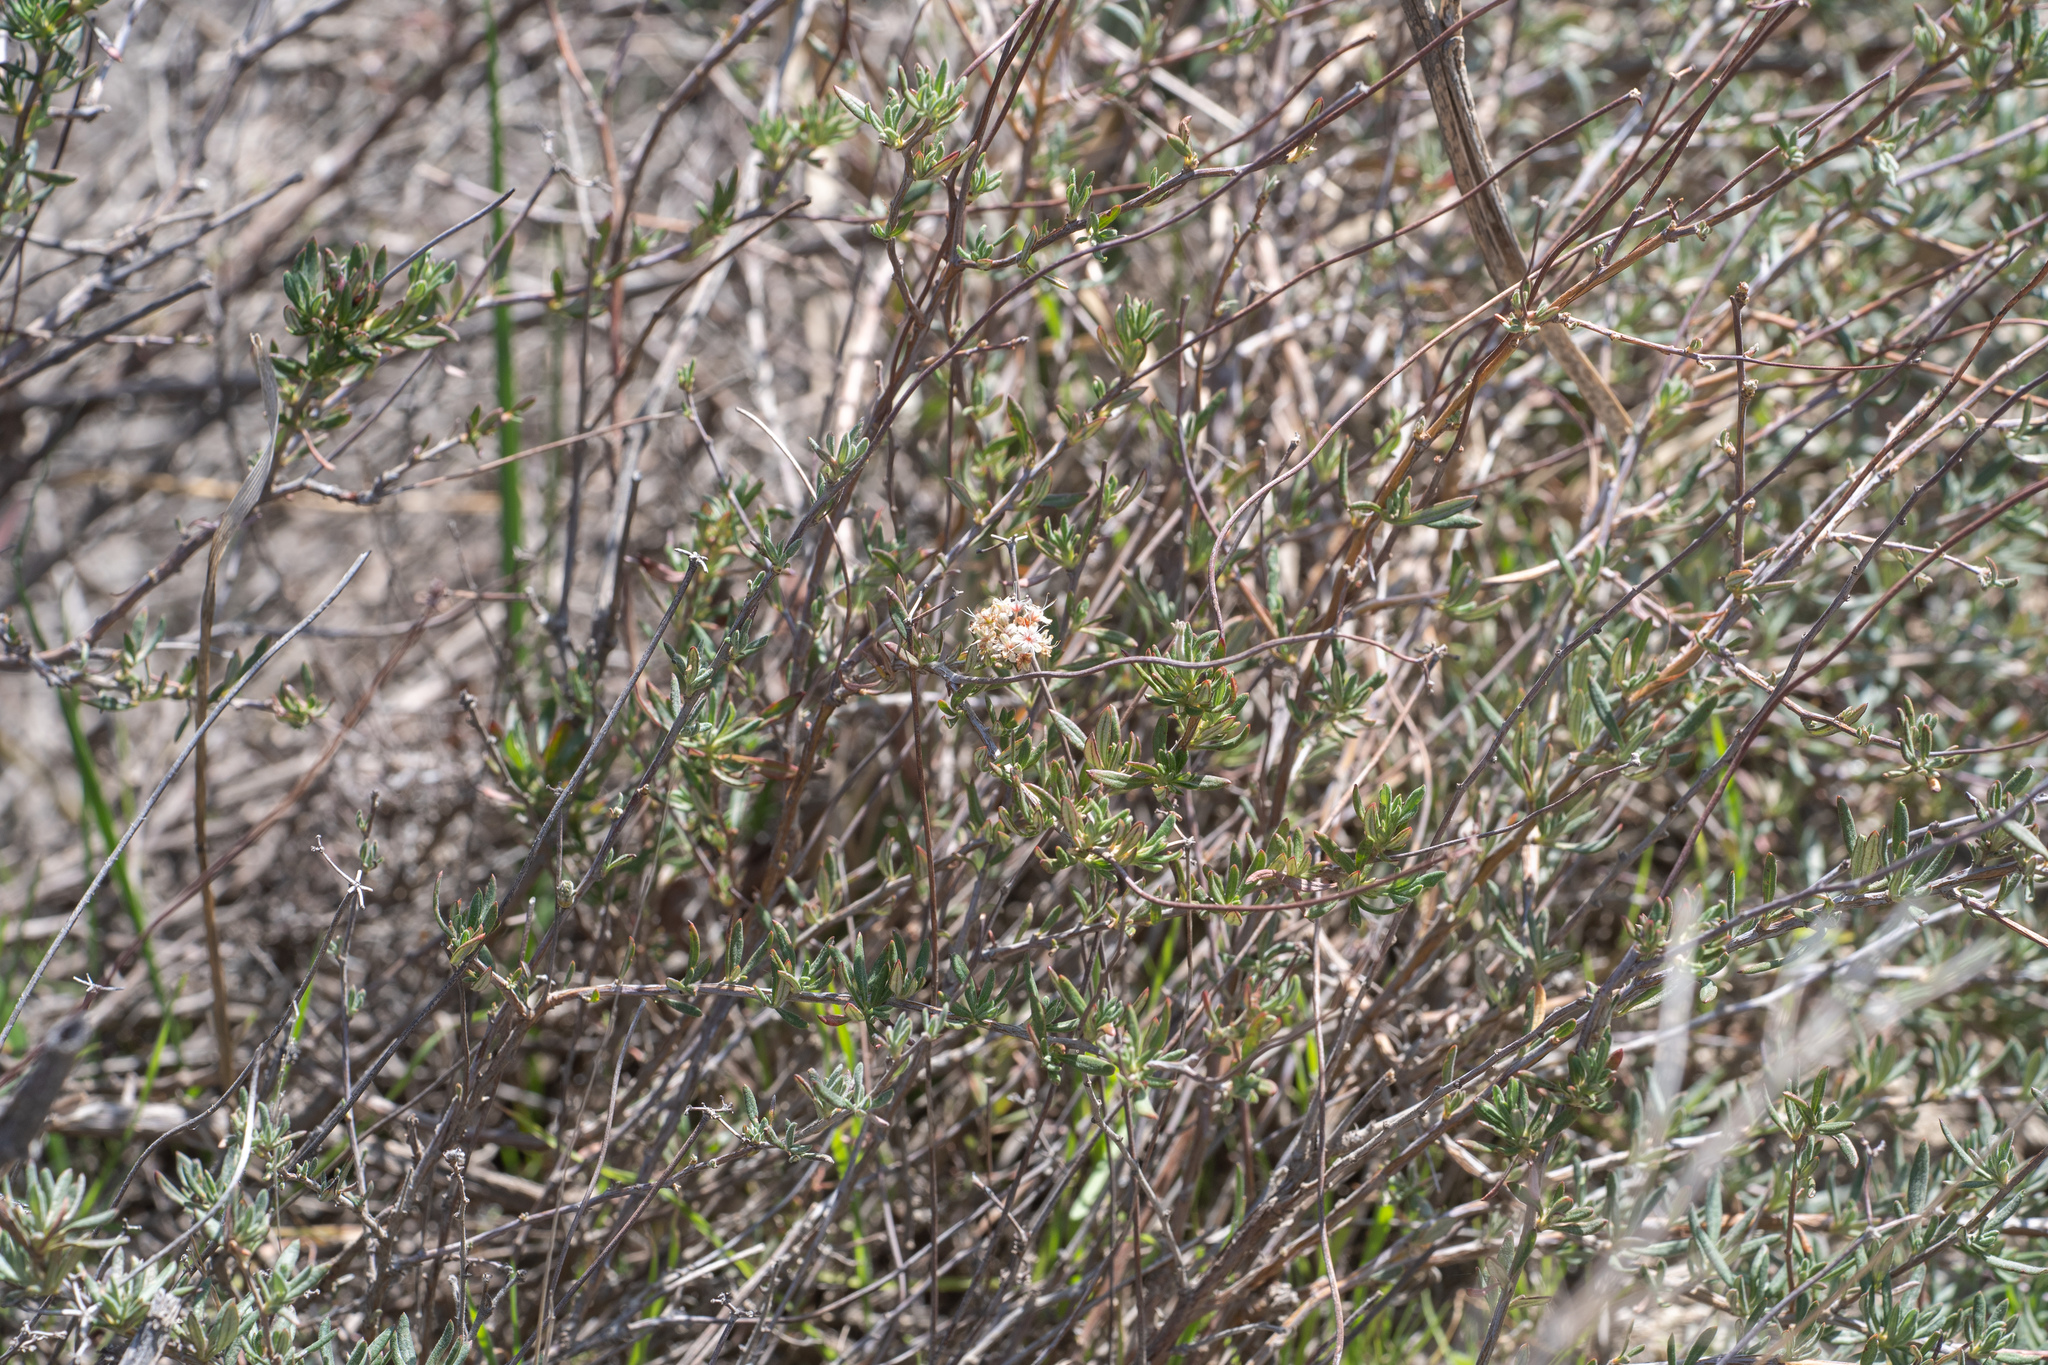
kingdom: Plantae
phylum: Tracheophyta
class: Magnoliopsida
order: Caryophyllales
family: Polygonaceae
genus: Eriogonum
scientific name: Eriogonum fasciculatum
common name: California wild buckwheat
